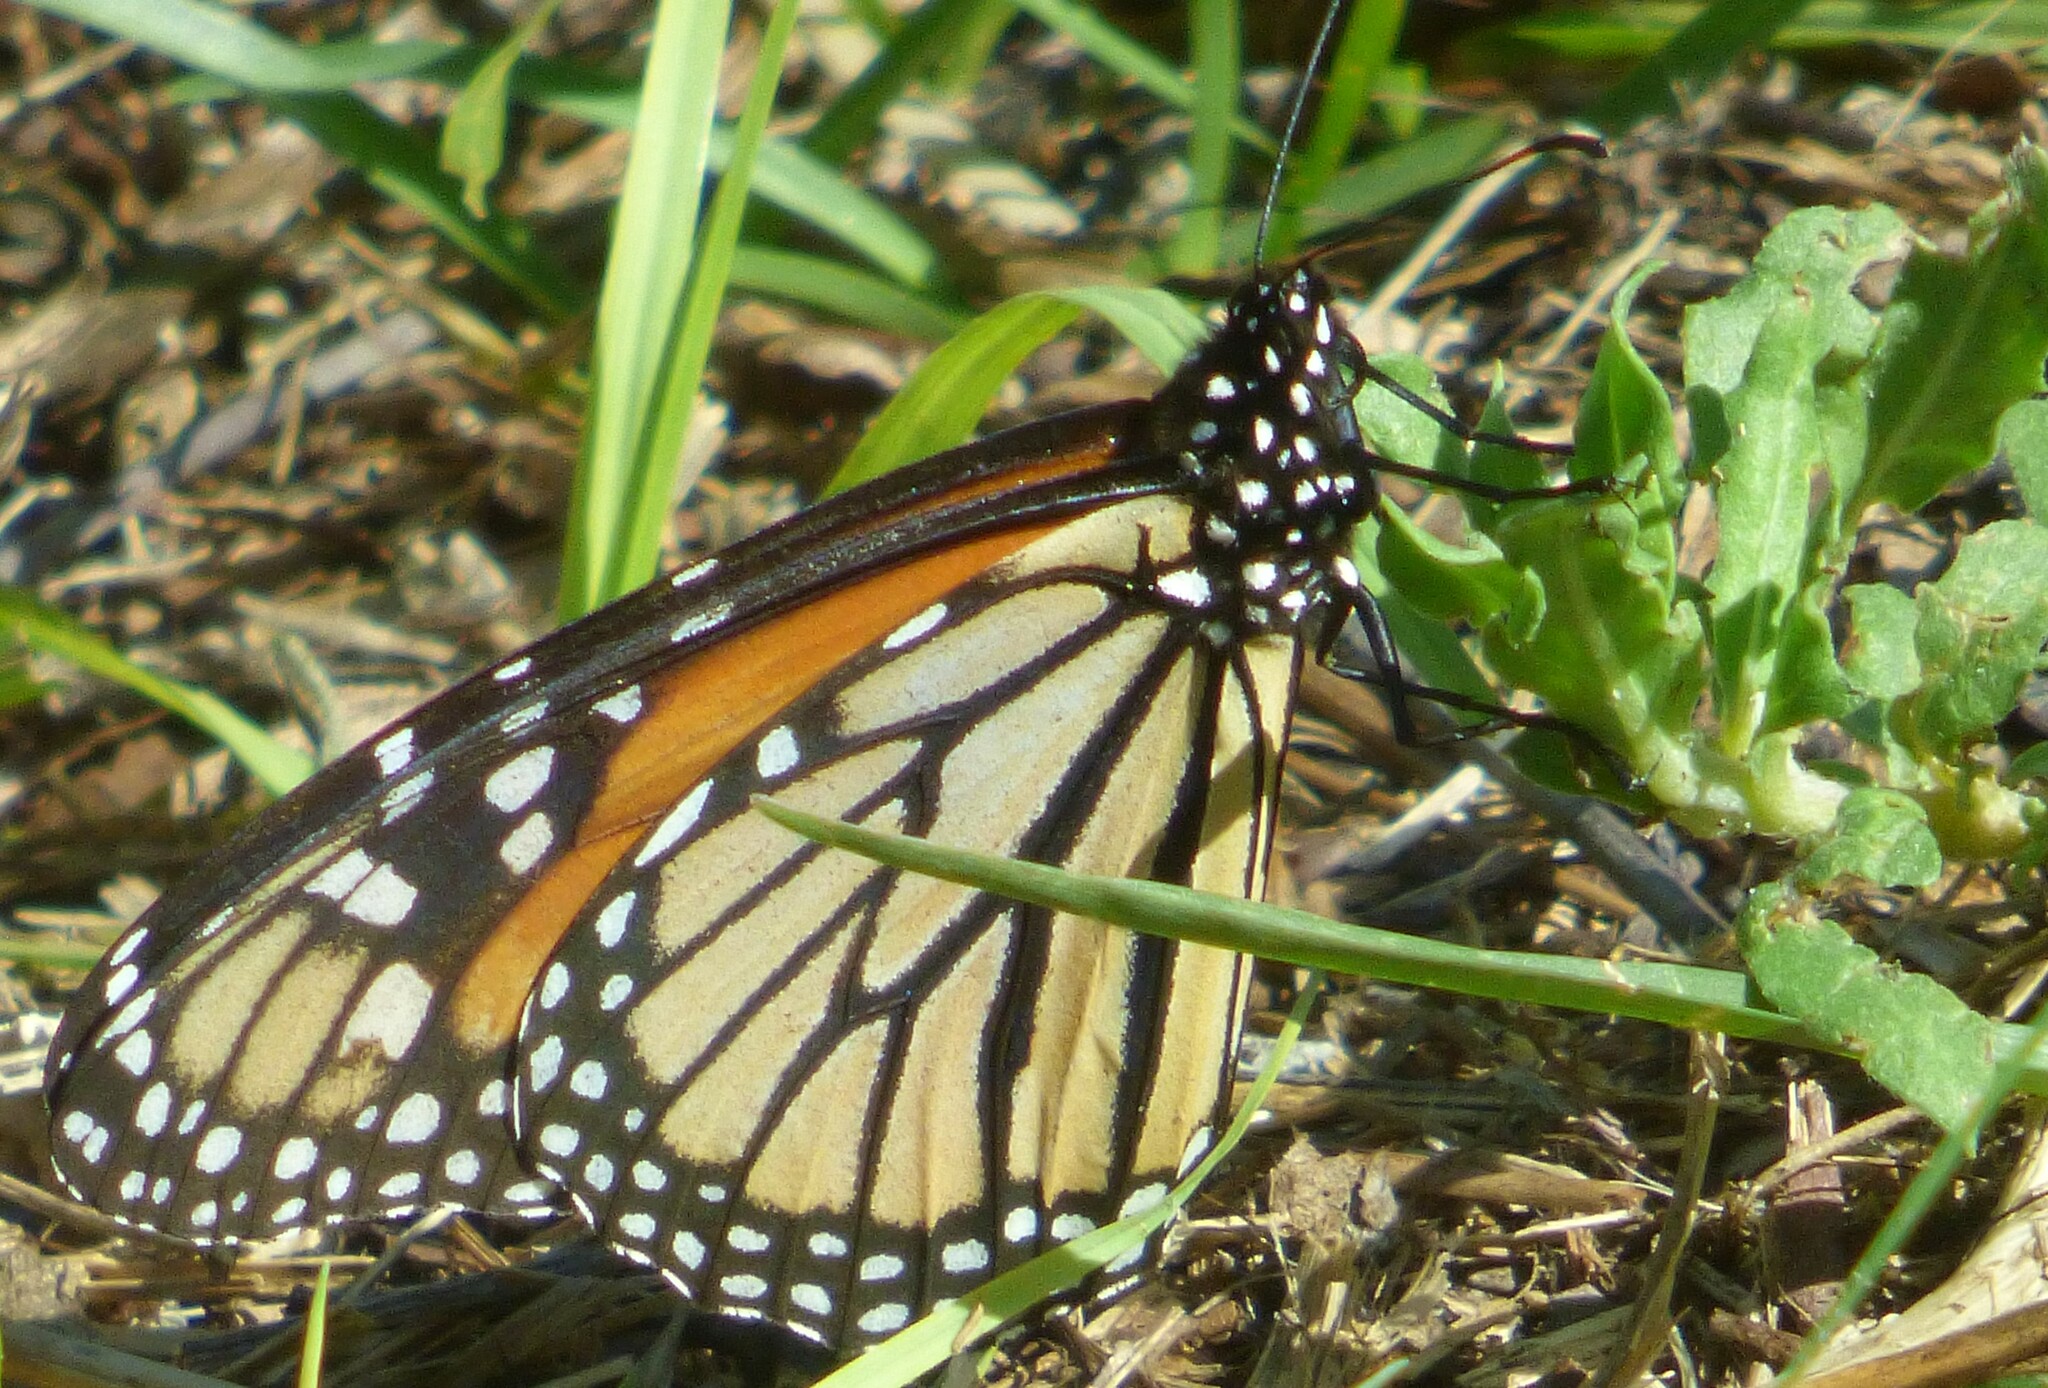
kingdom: Animalia
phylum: Arthropoda
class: Insecta
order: Lepidoptera
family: Nymphalidae
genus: Danaus
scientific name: Danaus plexippus
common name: Monarch
